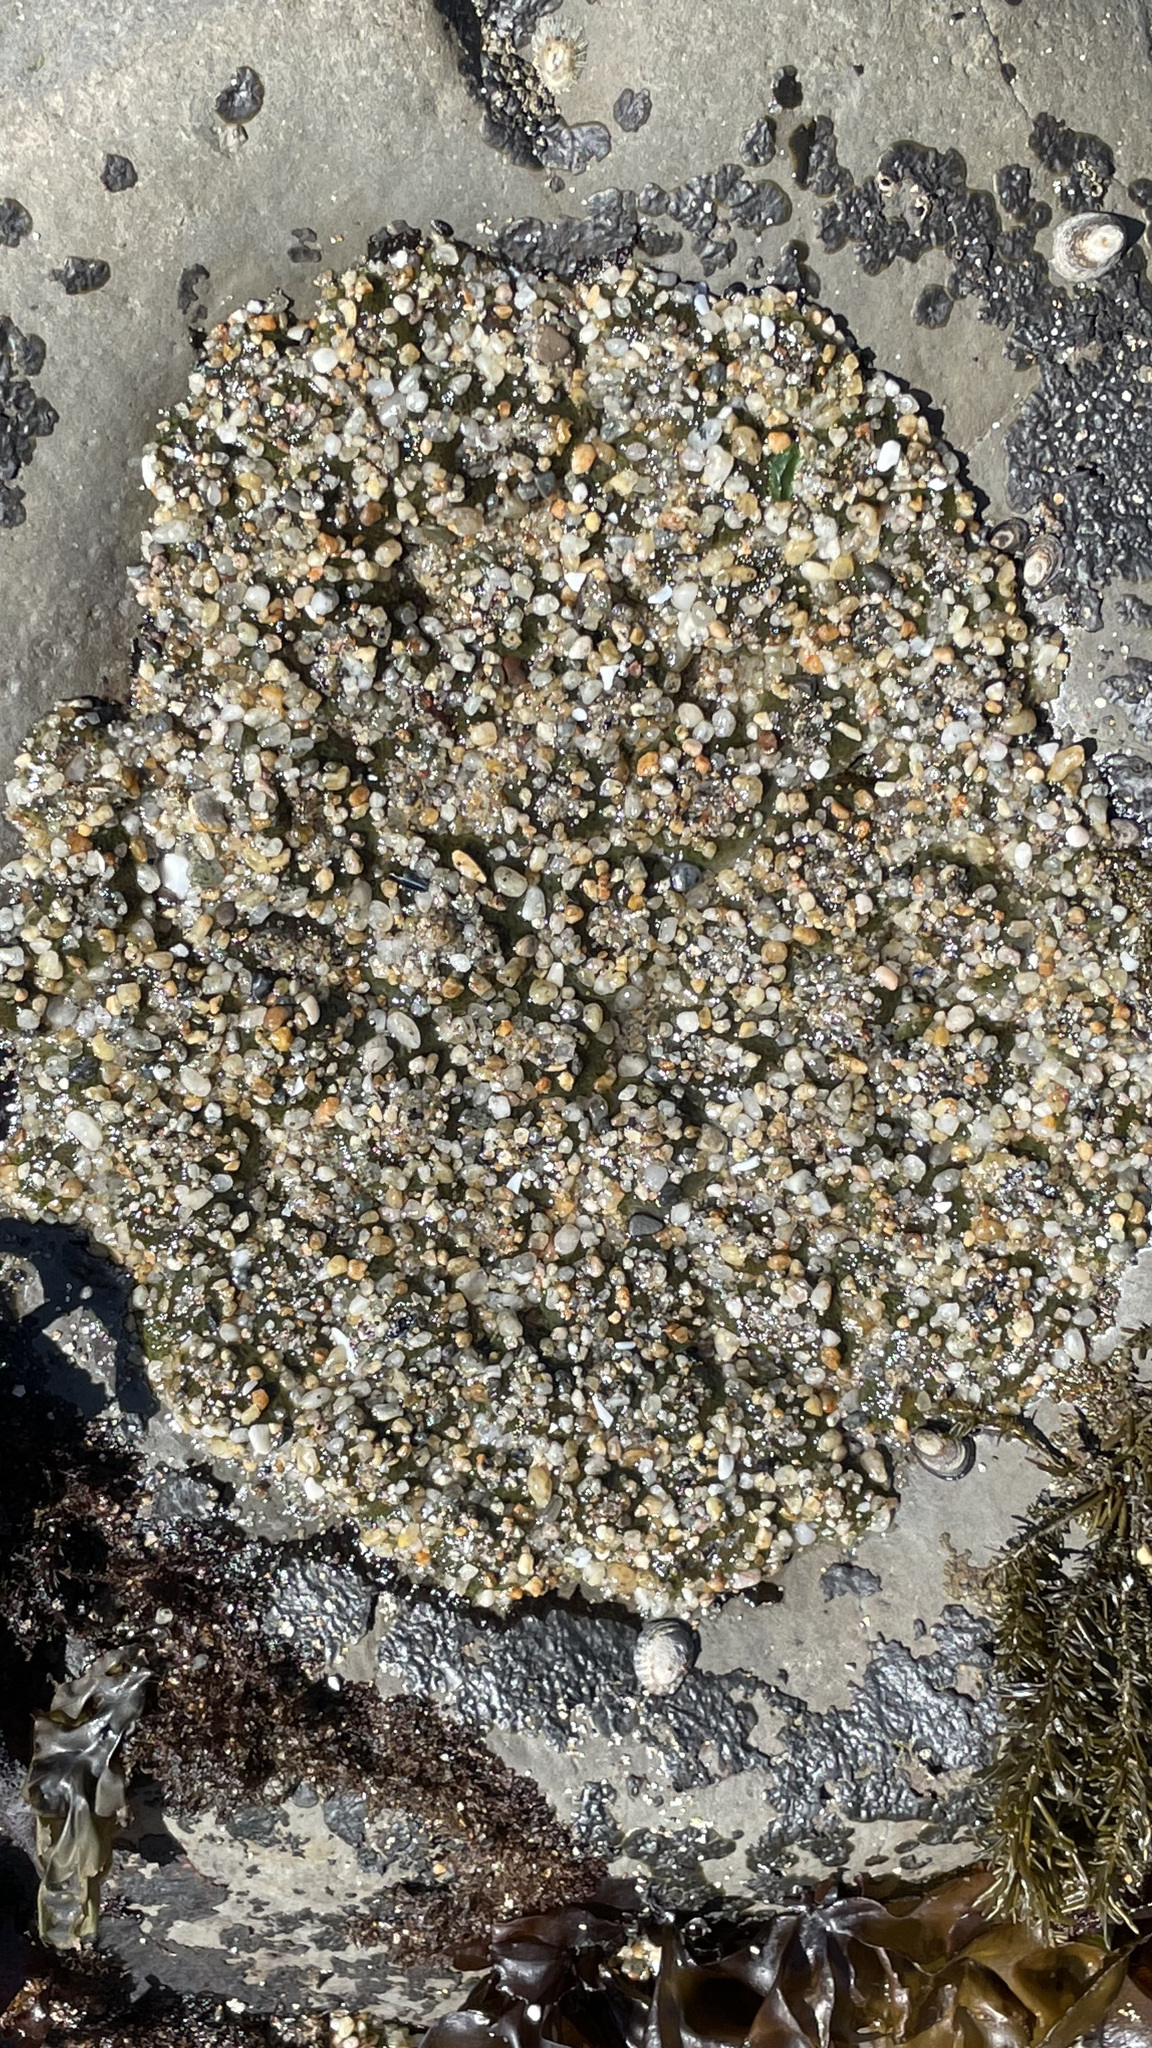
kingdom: Animalia
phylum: Cnidaria
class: Anthozoa
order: Actiniaria
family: Actiniidae
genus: Anthopleura
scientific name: Anthopleura elegantissima
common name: Clonal anemone
